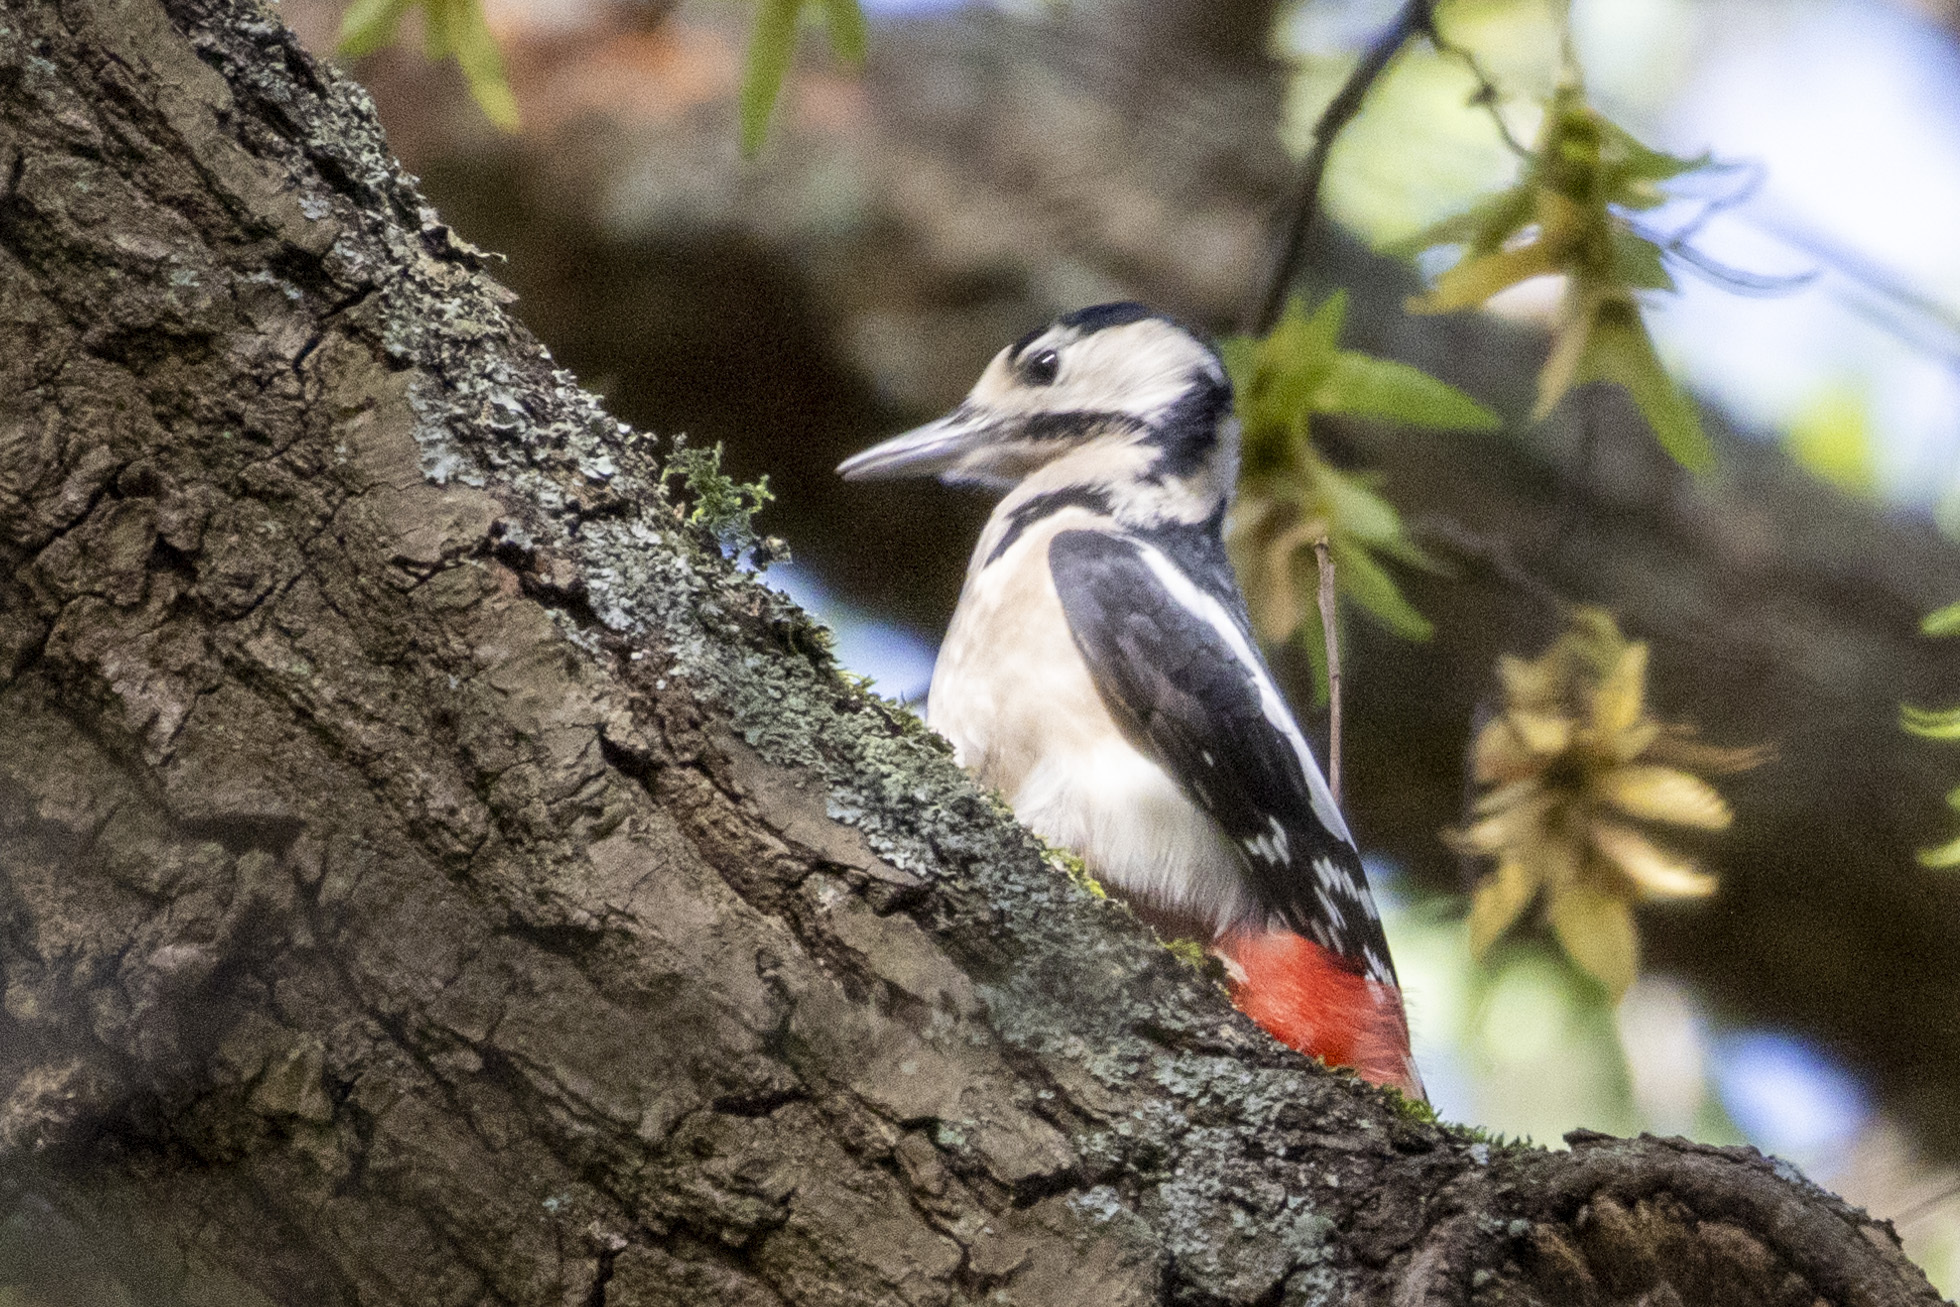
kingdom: Animalia
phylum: Chordata
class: Aves
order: Piciformes
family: Picidae
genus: Dendrocopos
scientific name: Dendrocopos major
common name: Great spotted woodpecker
